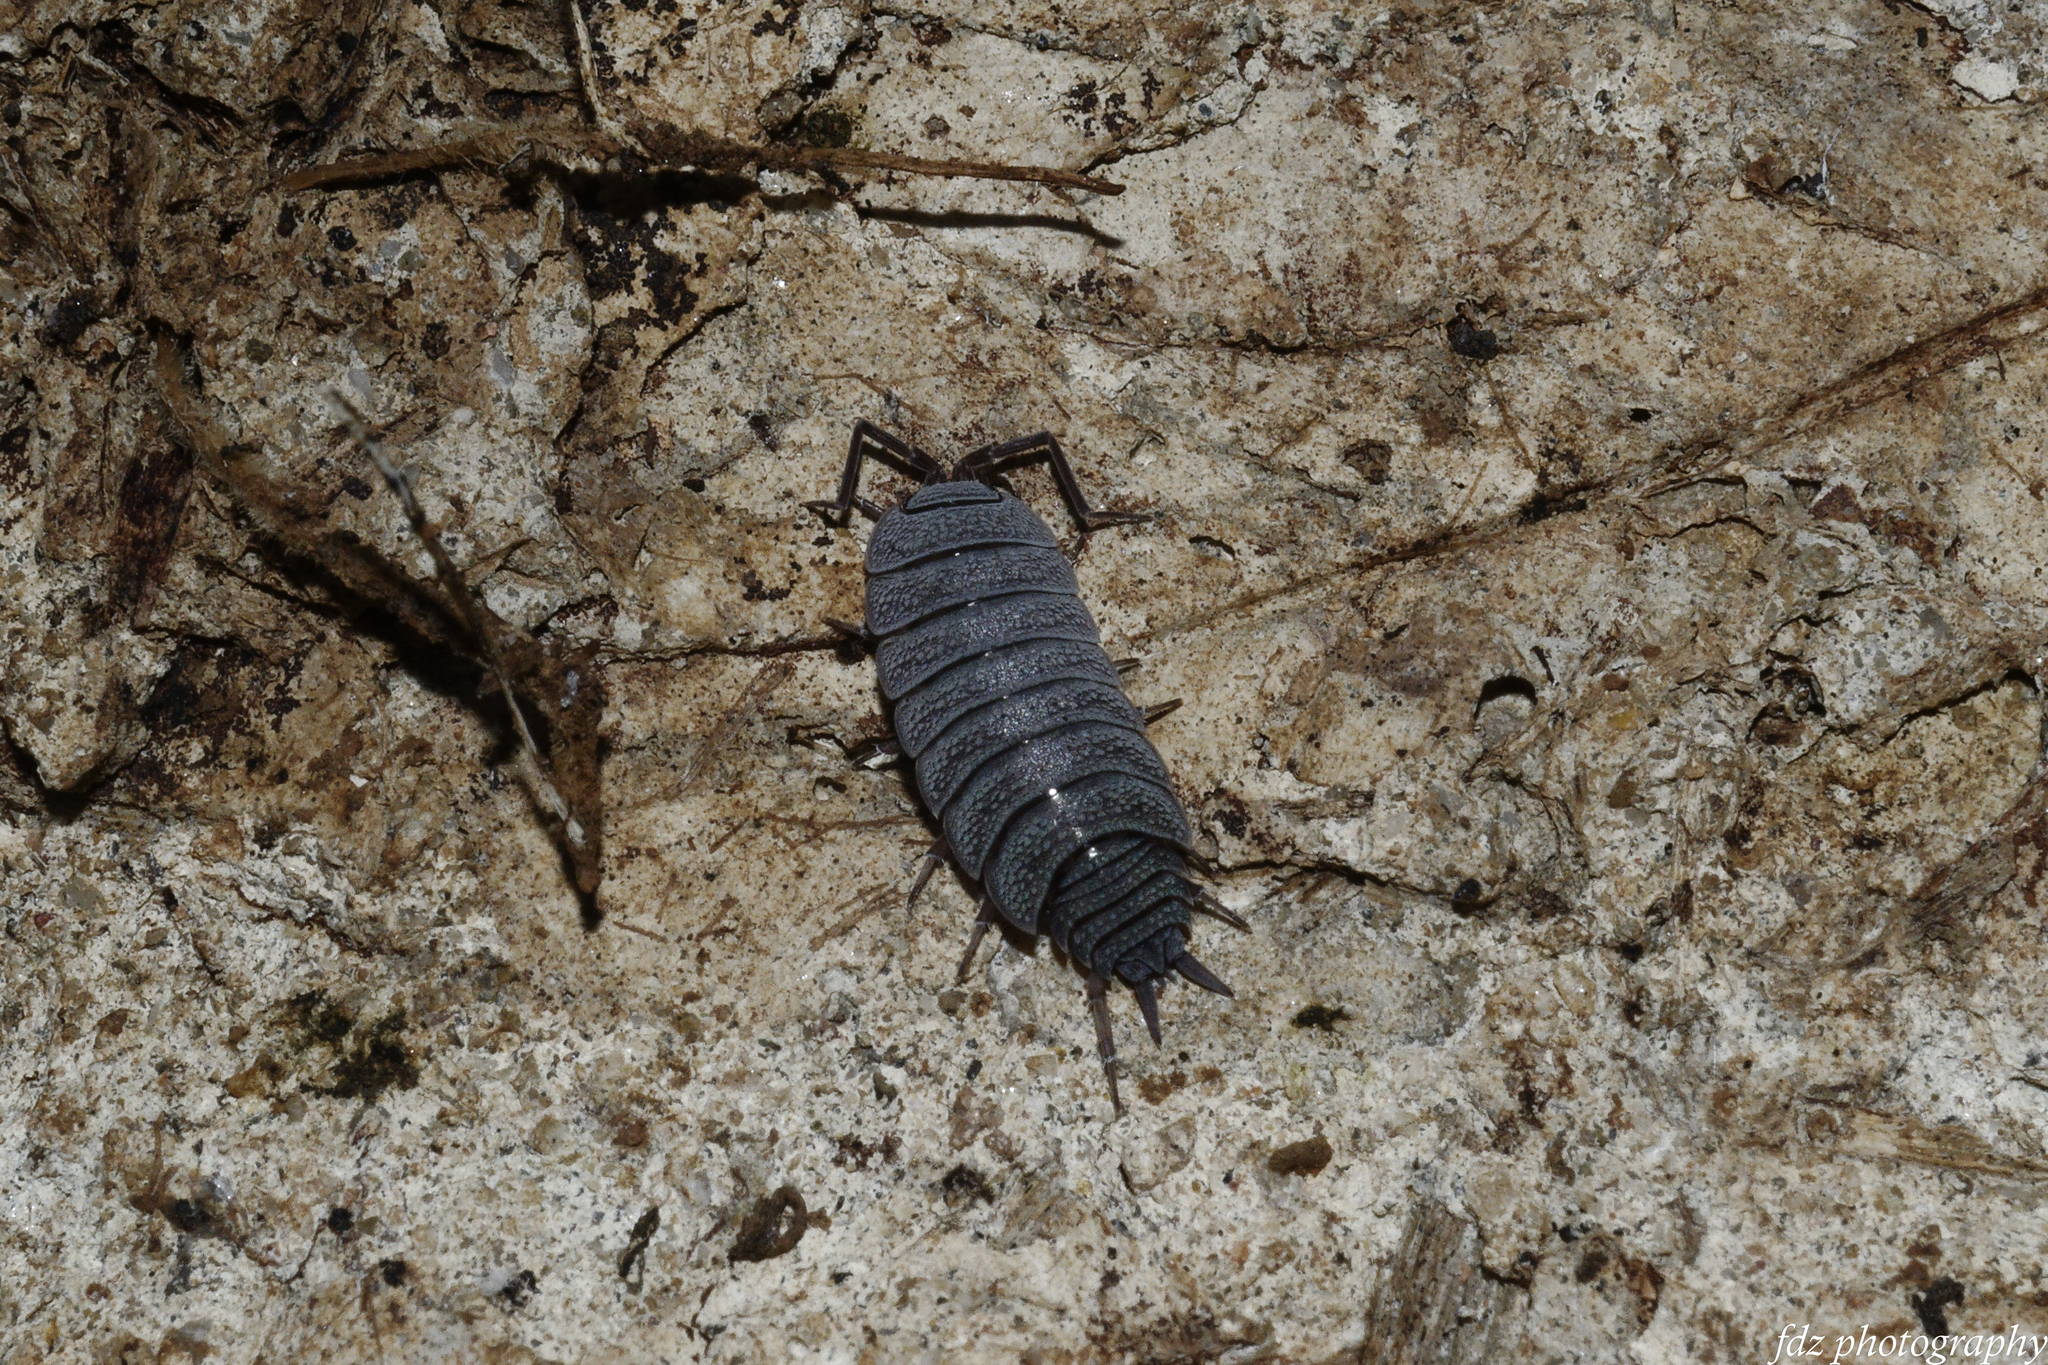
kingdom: Animalia
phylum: Arthropoda
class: Malacostraca
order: Isopoda
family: Porcellionidae
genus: Porcellionides
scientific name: Porcellionides pruinosus
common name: Plum woodlouse
